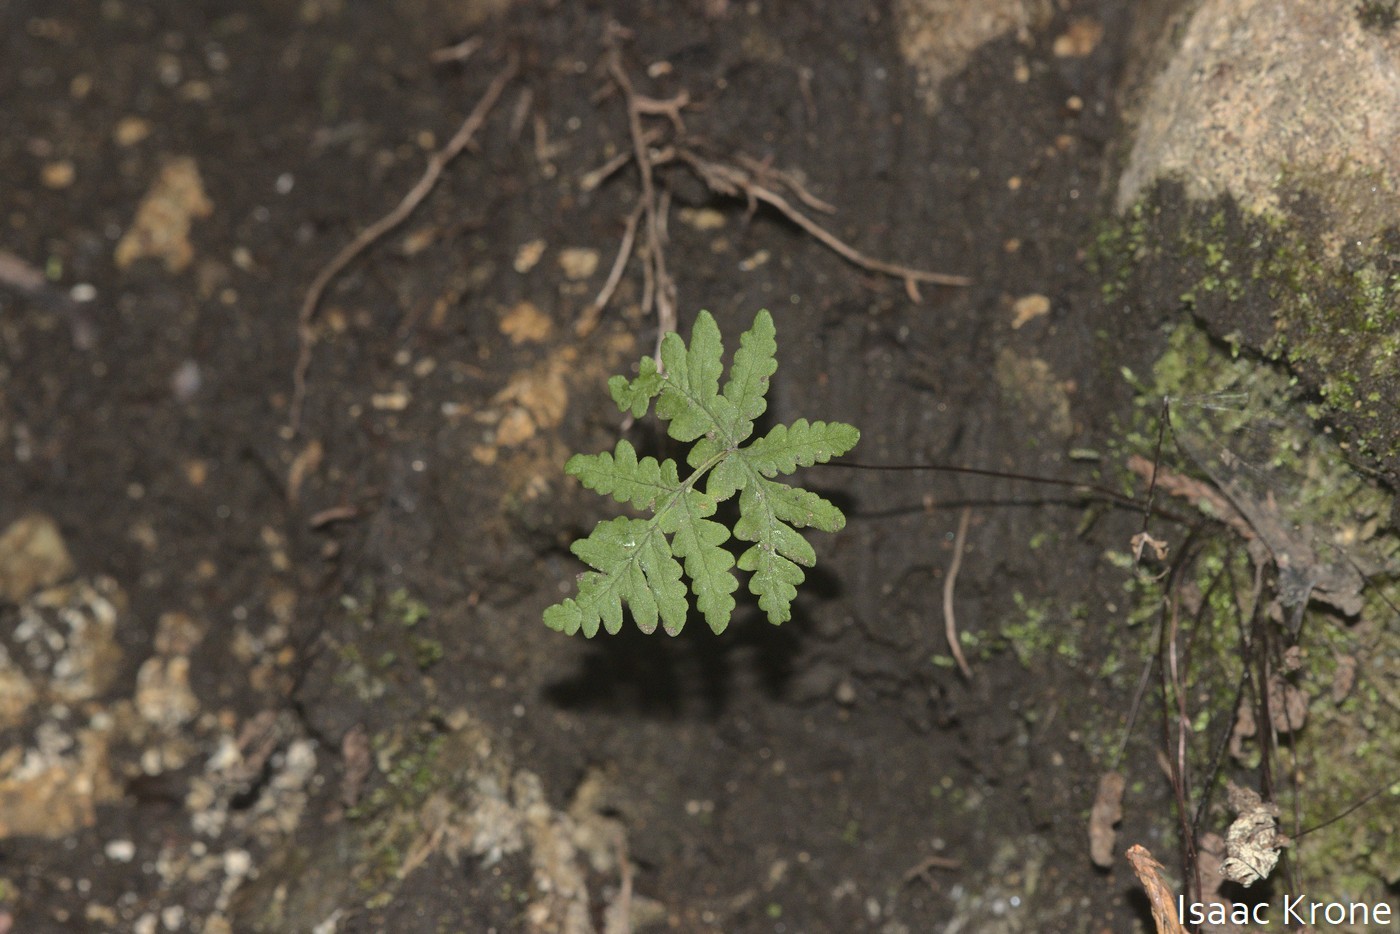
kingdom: Plantae
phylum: Tracheophyta
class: Polypodiopsida
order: Polypodiales
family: Pteridaceae
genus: Pentagramma
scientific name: Pentagramma triangularis
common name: Gold fern
